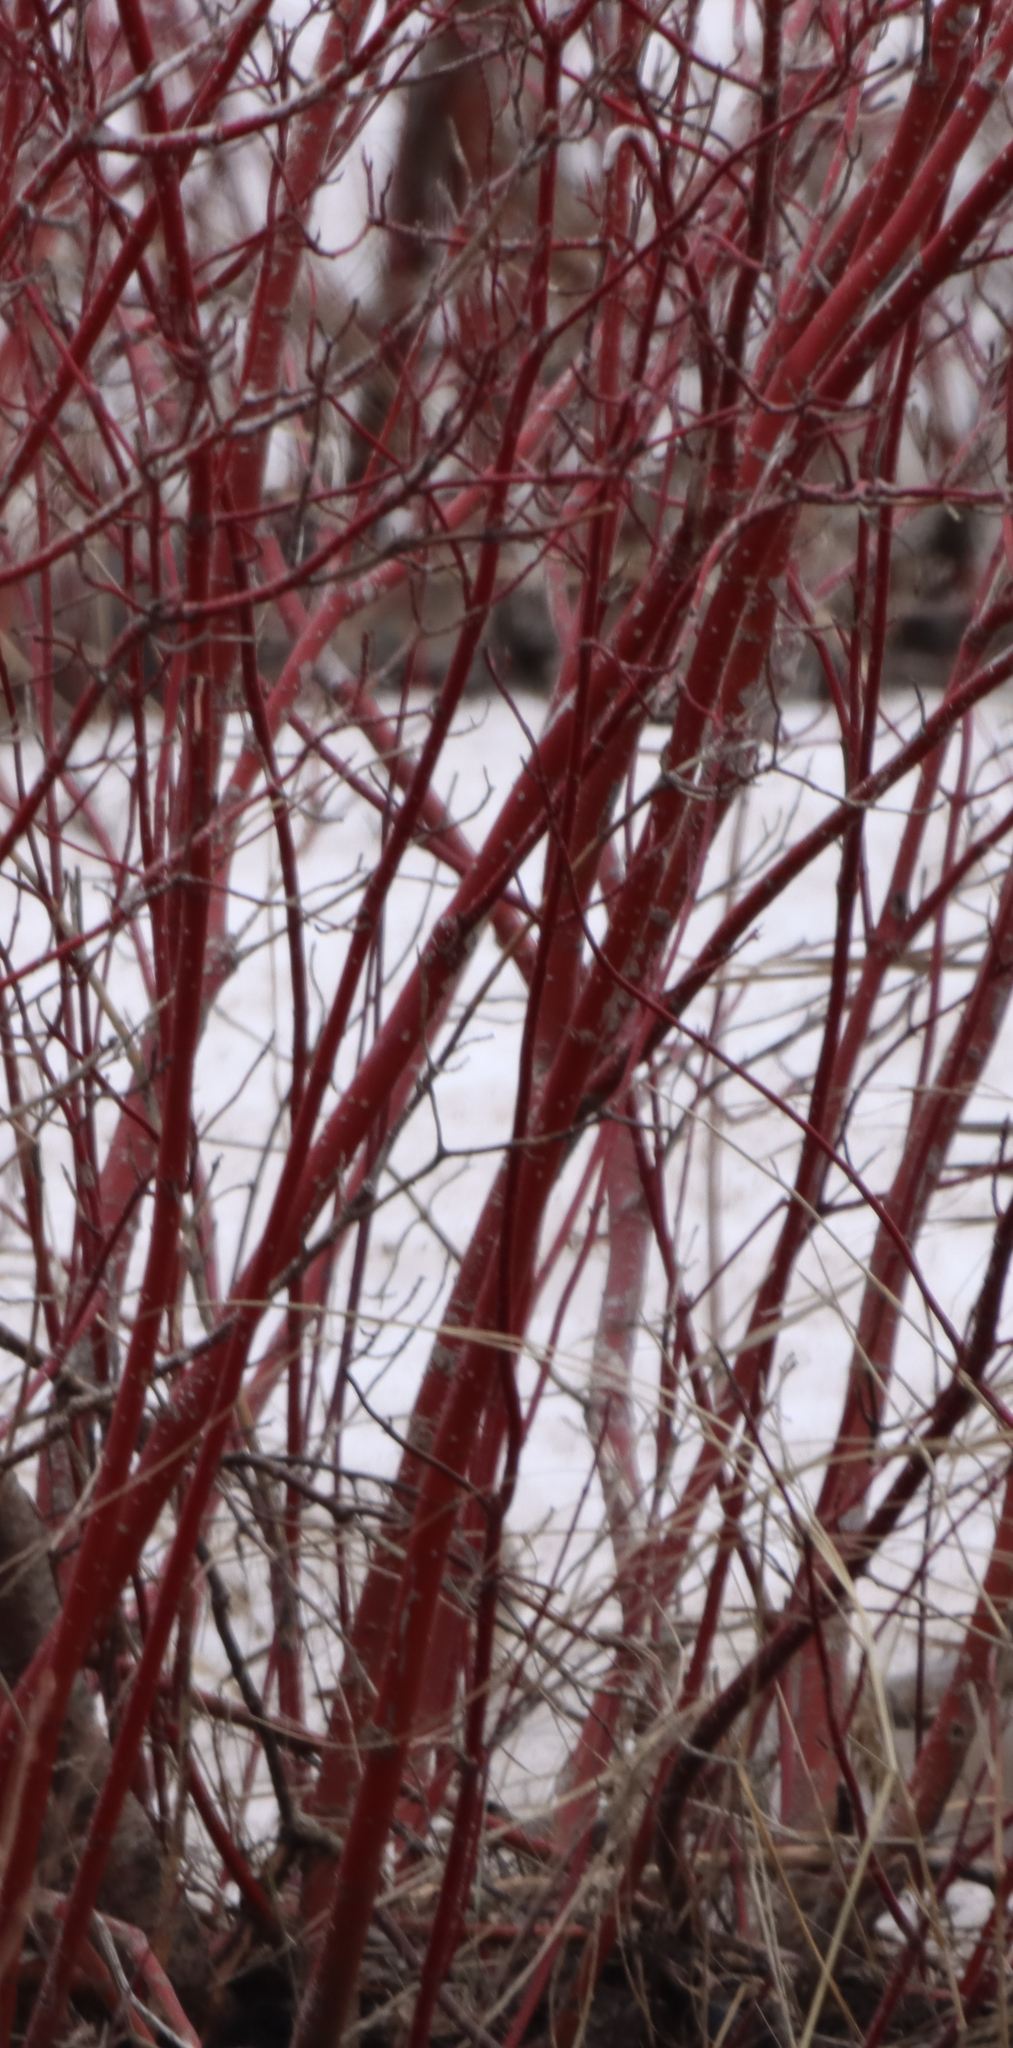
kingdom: Plantae
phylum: Tracheophyta
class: Magnoliopsida
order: Cornales
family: Cornaceae
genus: Cornus
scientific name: Cornus sericea
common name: Red-osier dogwood
